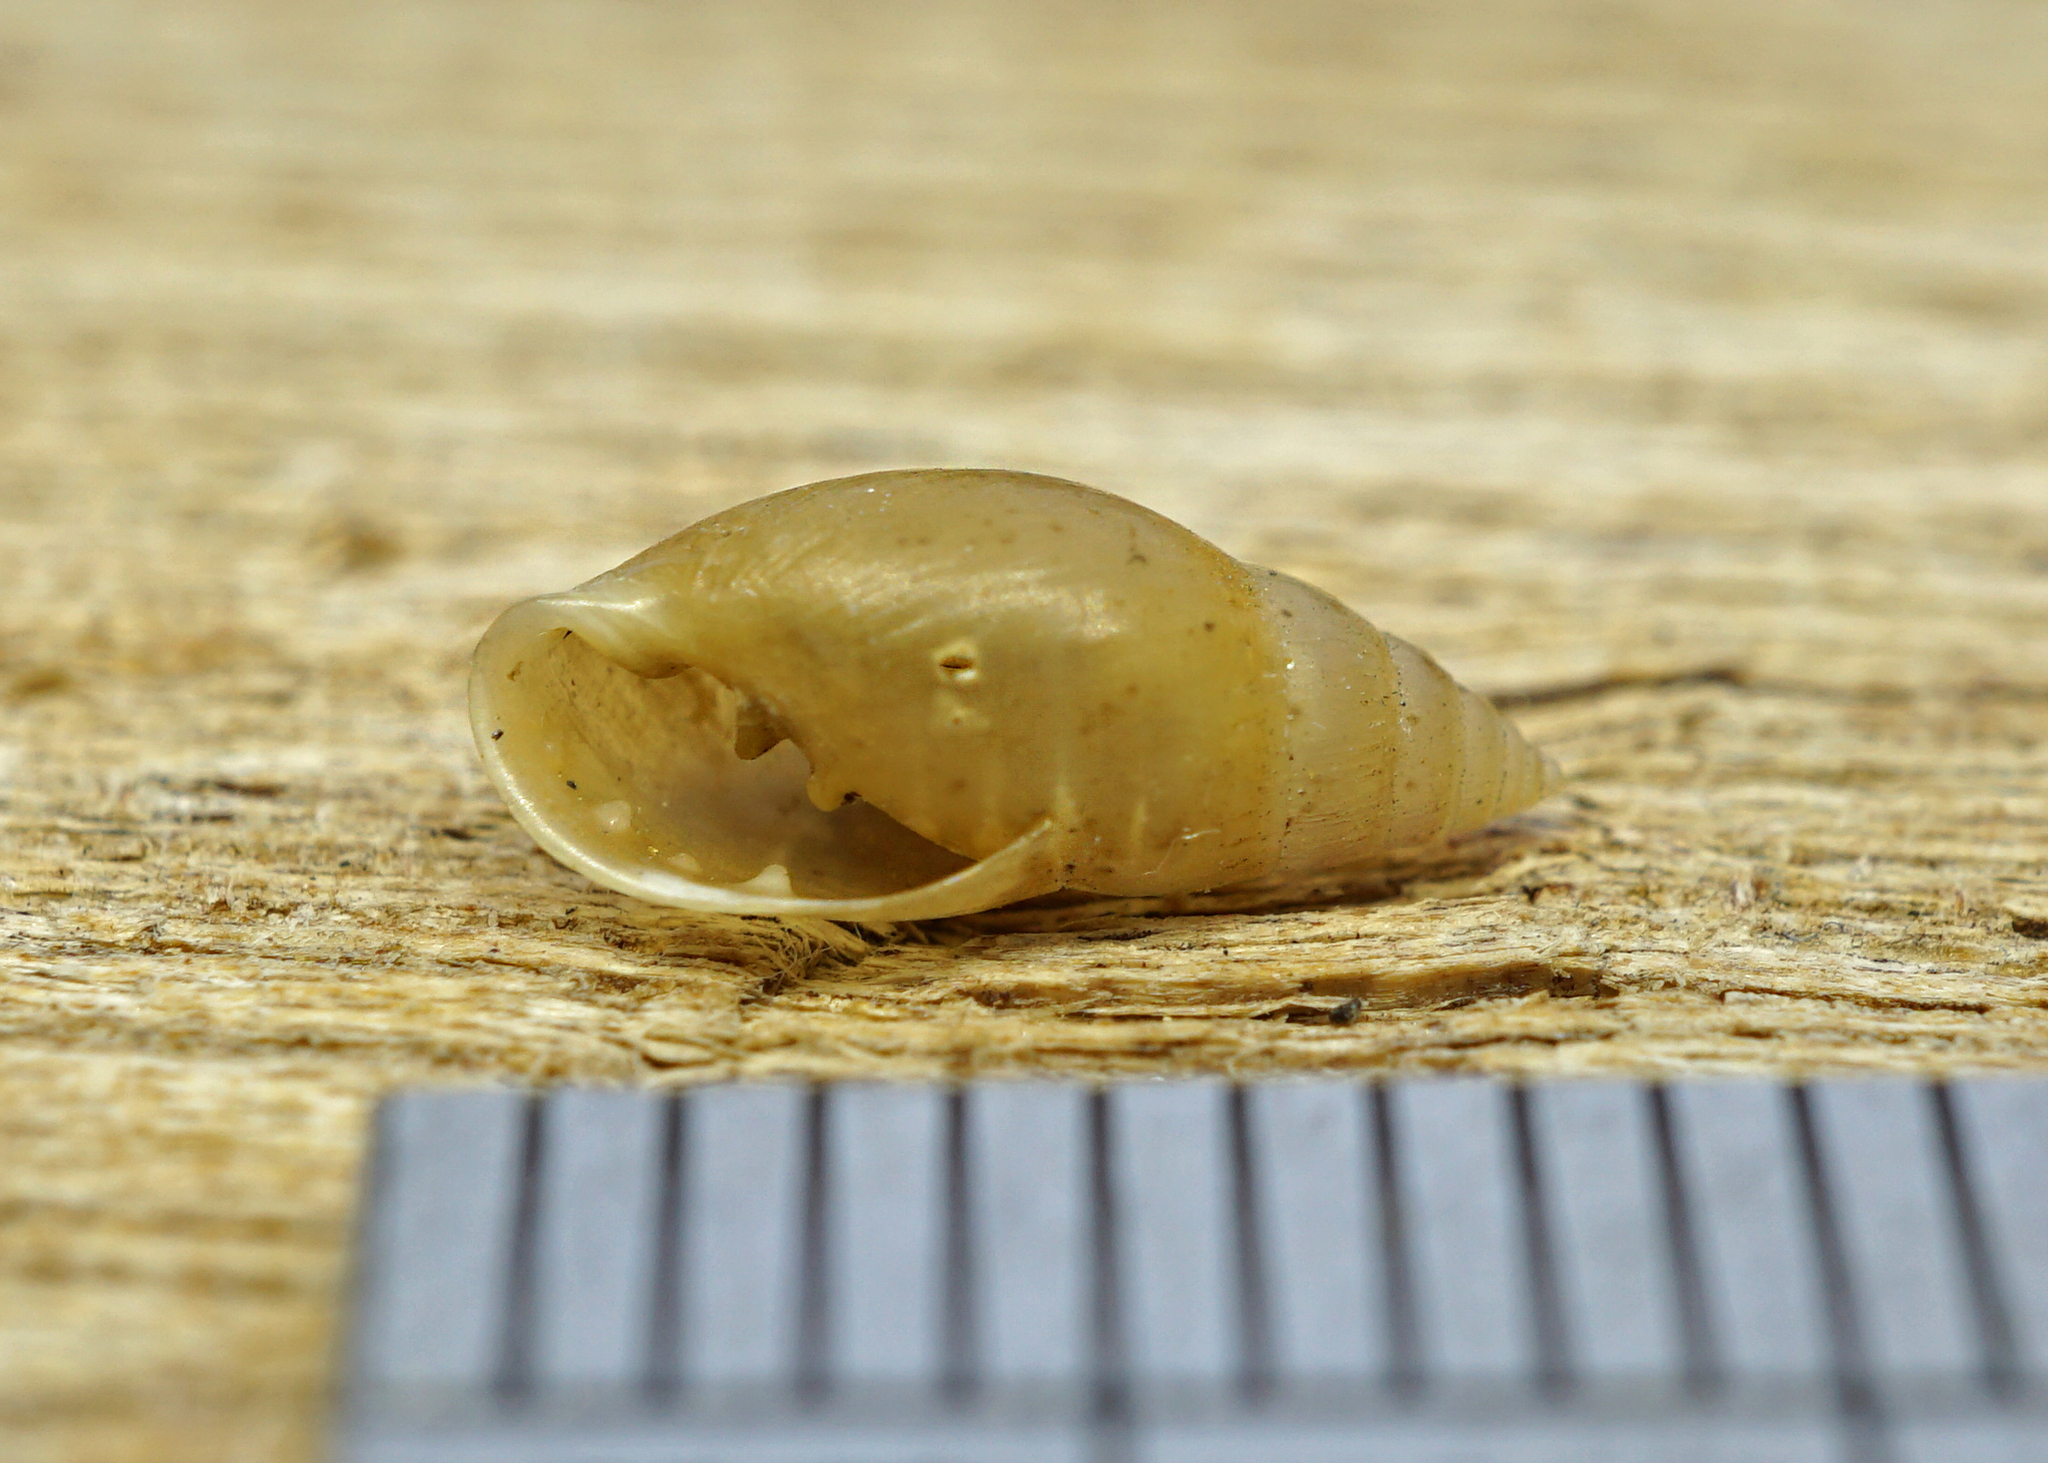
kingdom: Animalia
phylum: Mollusca
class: Gastropoda
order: Ellobiida
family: Ellobiidae
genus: Myosotella
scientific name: Myosotella myosotis
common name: Mouse-eared snail
